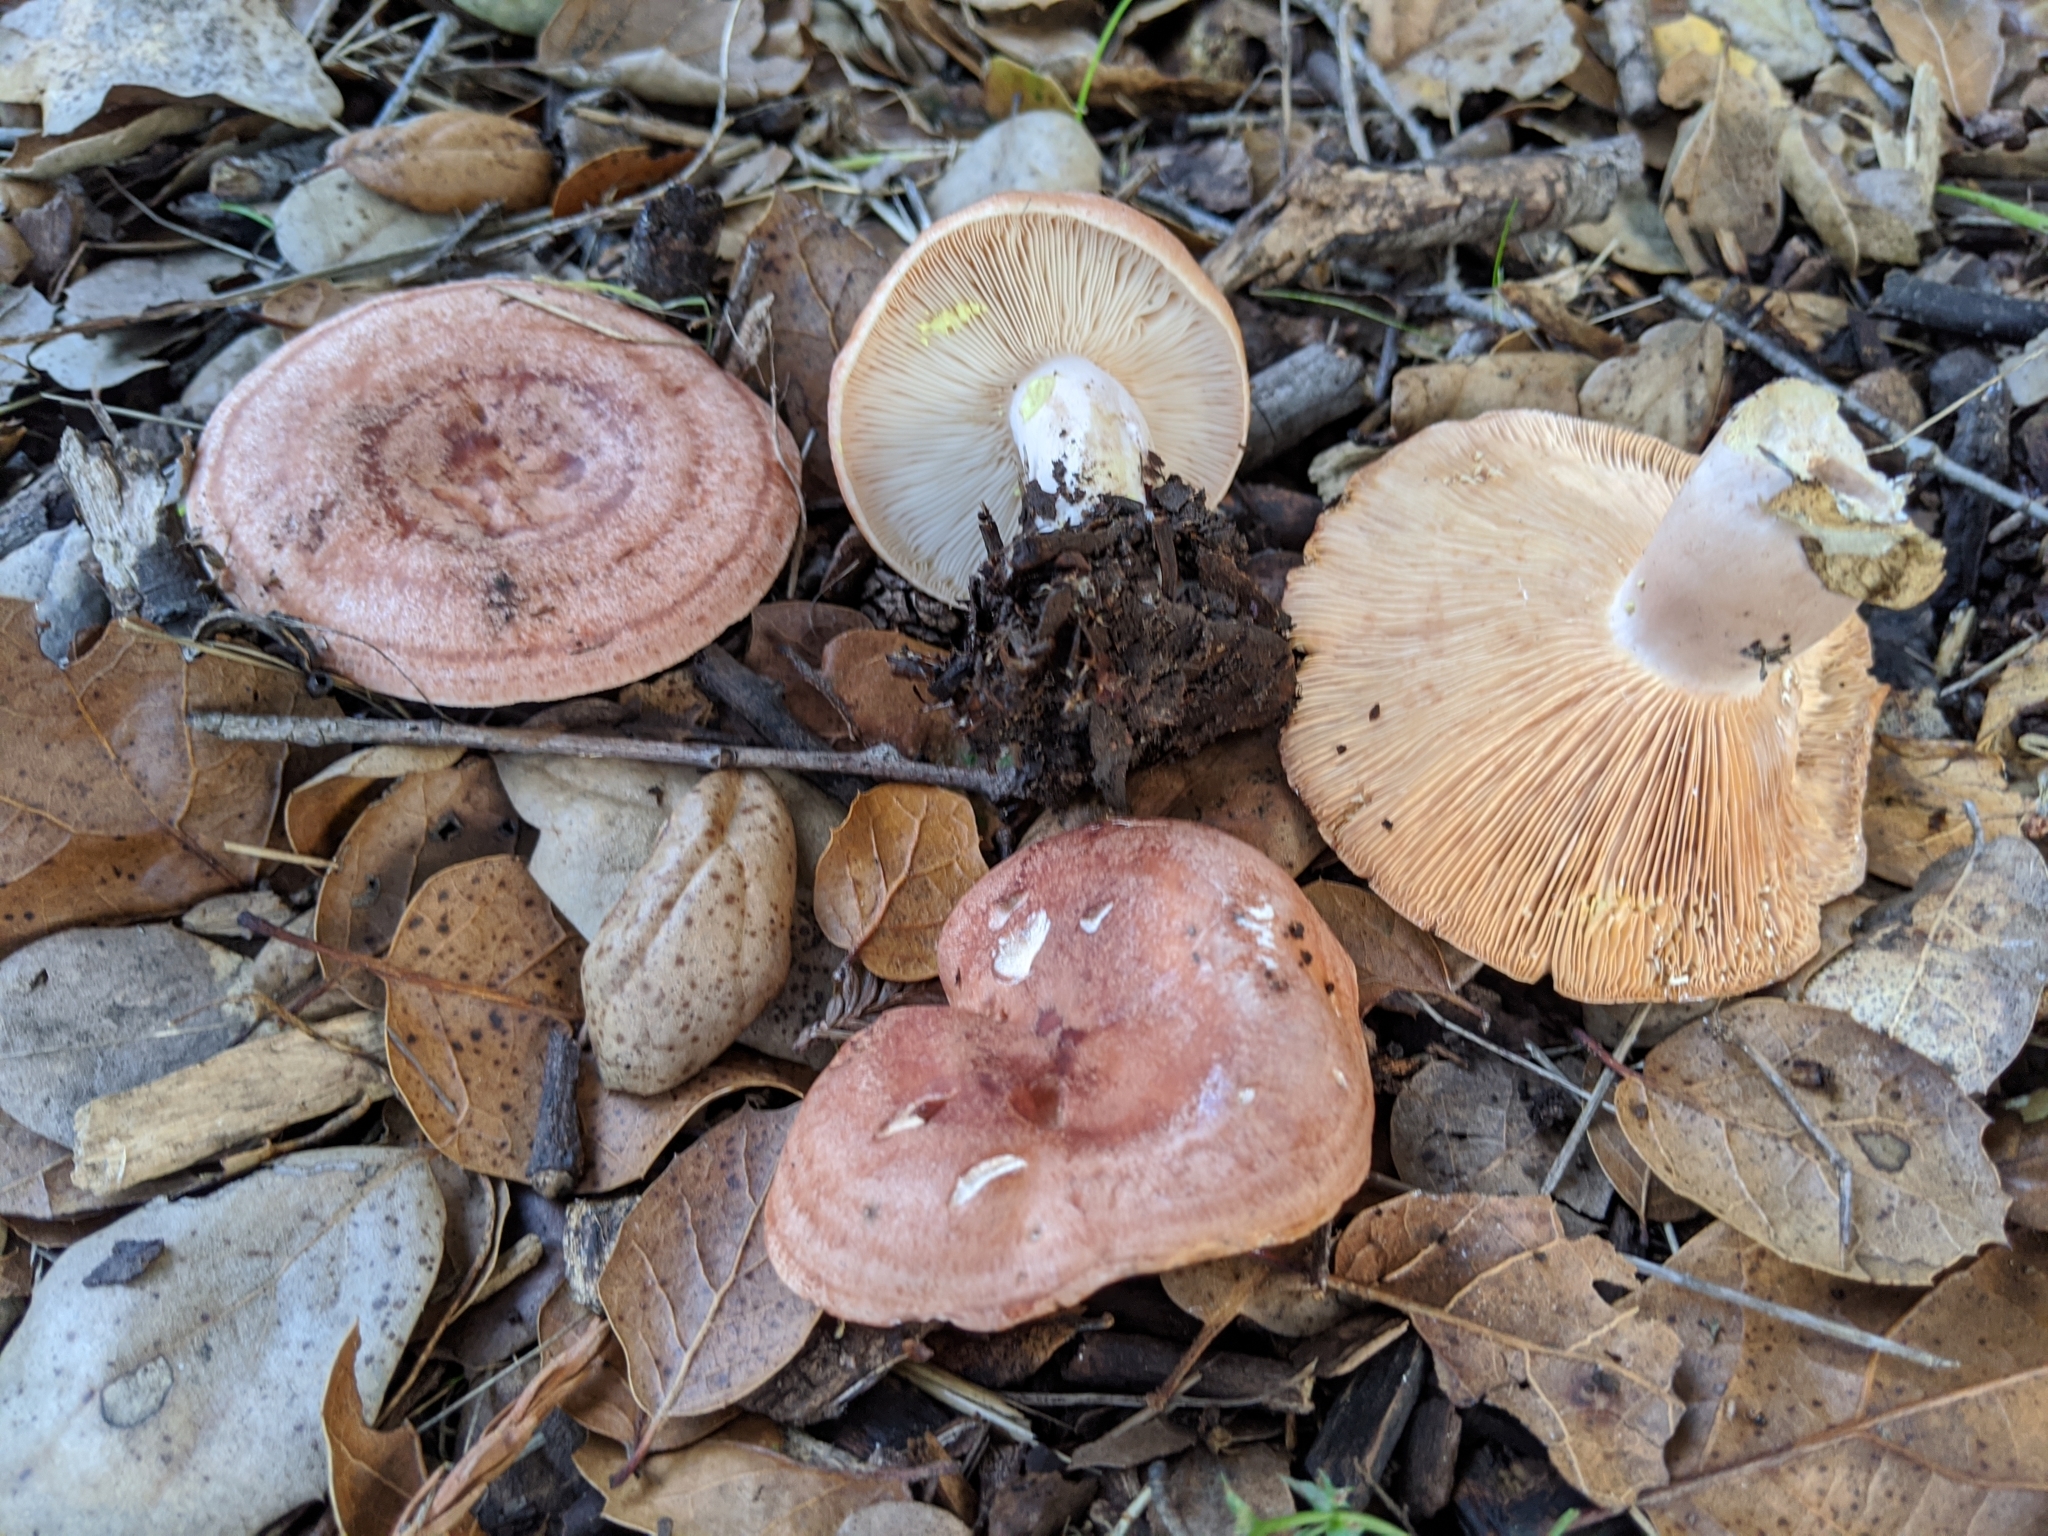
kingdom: Fungi
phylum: Basidiomycota
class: Agaricomycetes
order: Russulales
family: Russulaceae
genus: Lactarius
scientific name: Lactarius xanthogalactus
